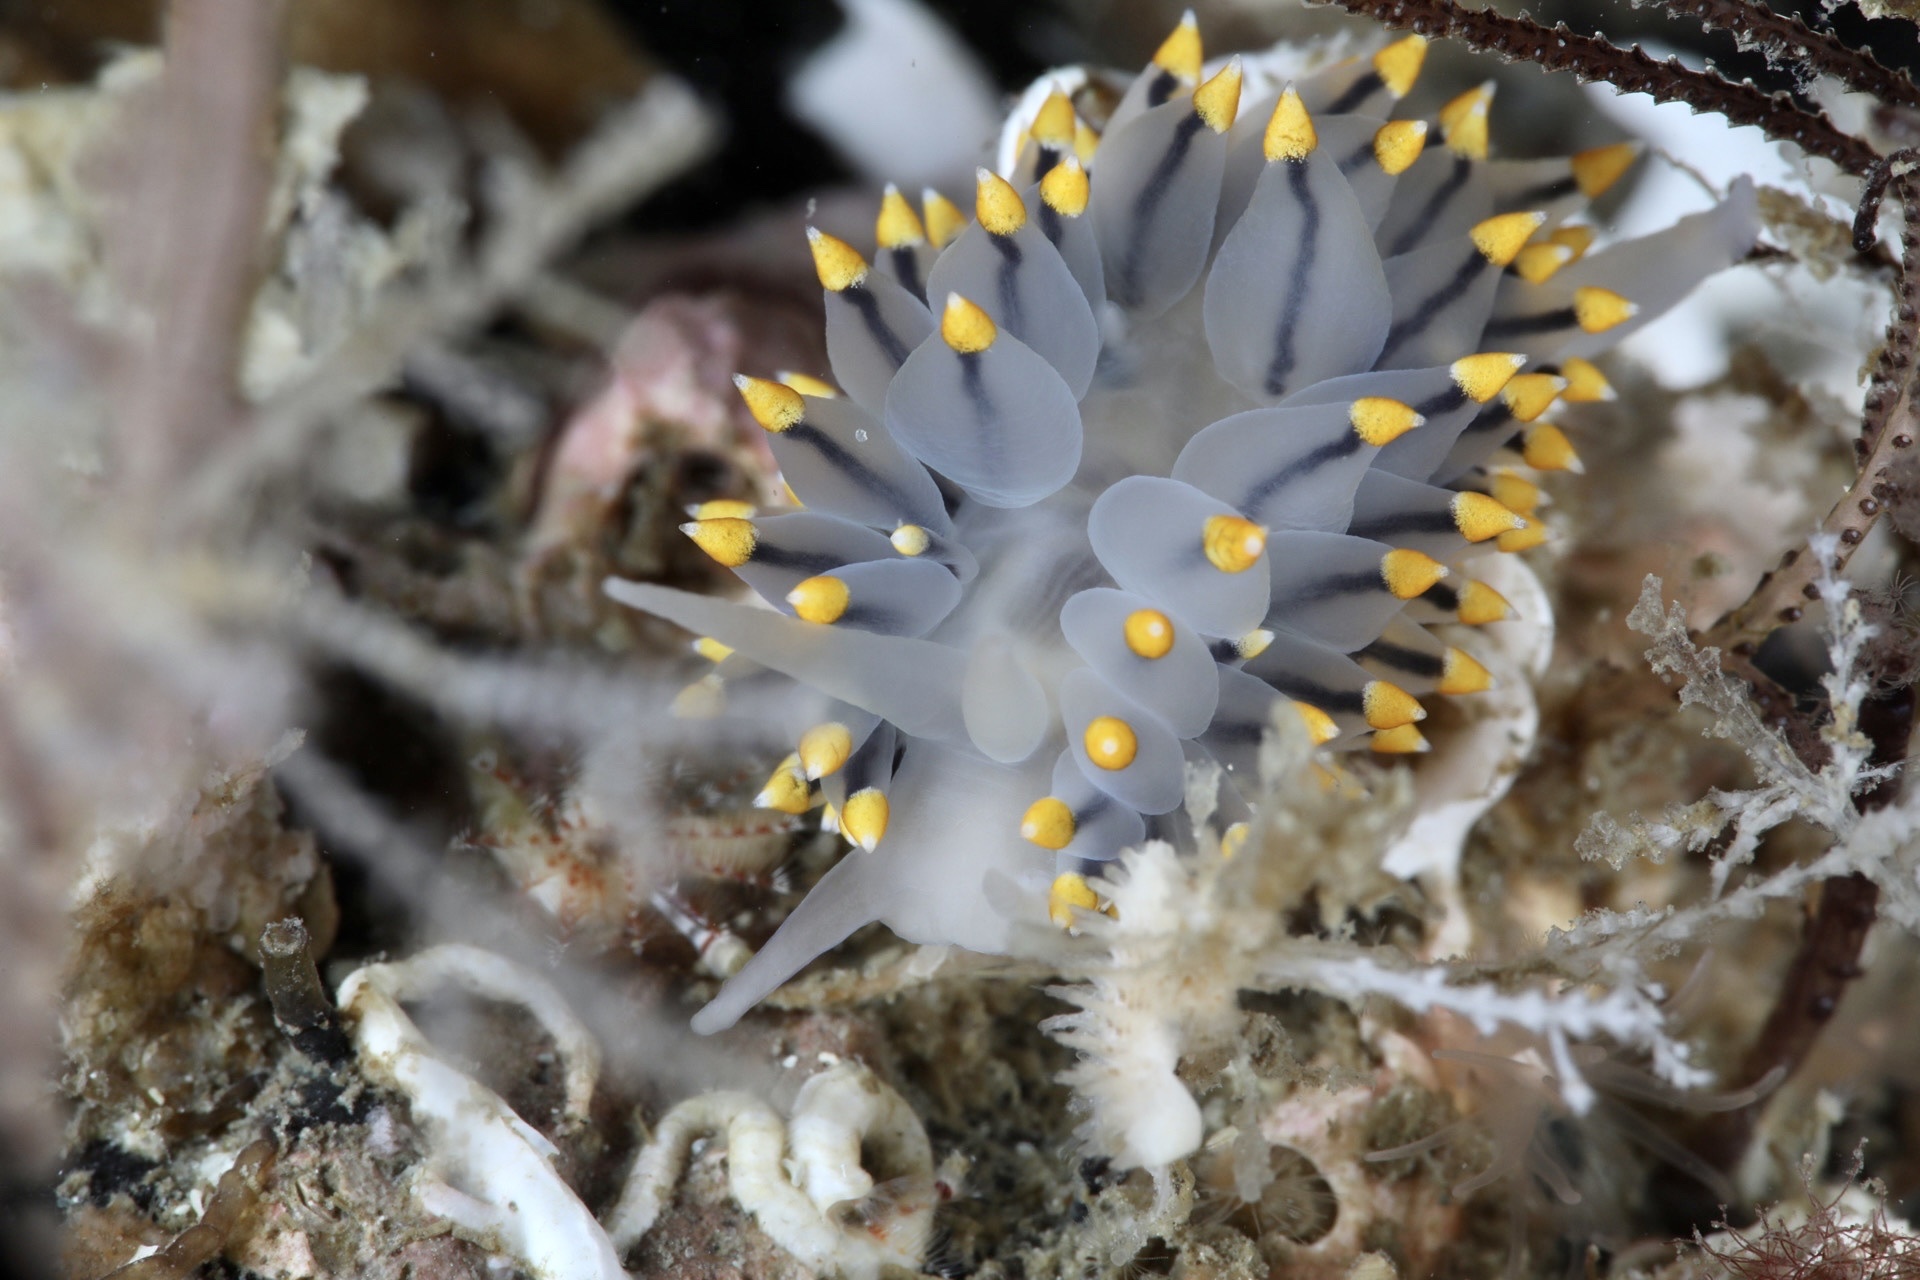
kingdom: Animalia
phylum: Mollusca
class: Gastropoda
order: Nudibranchia
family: Eubranchidae
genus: Eubranchus
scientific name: Eubranchus tricolor
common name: Painted balloon aeolis
